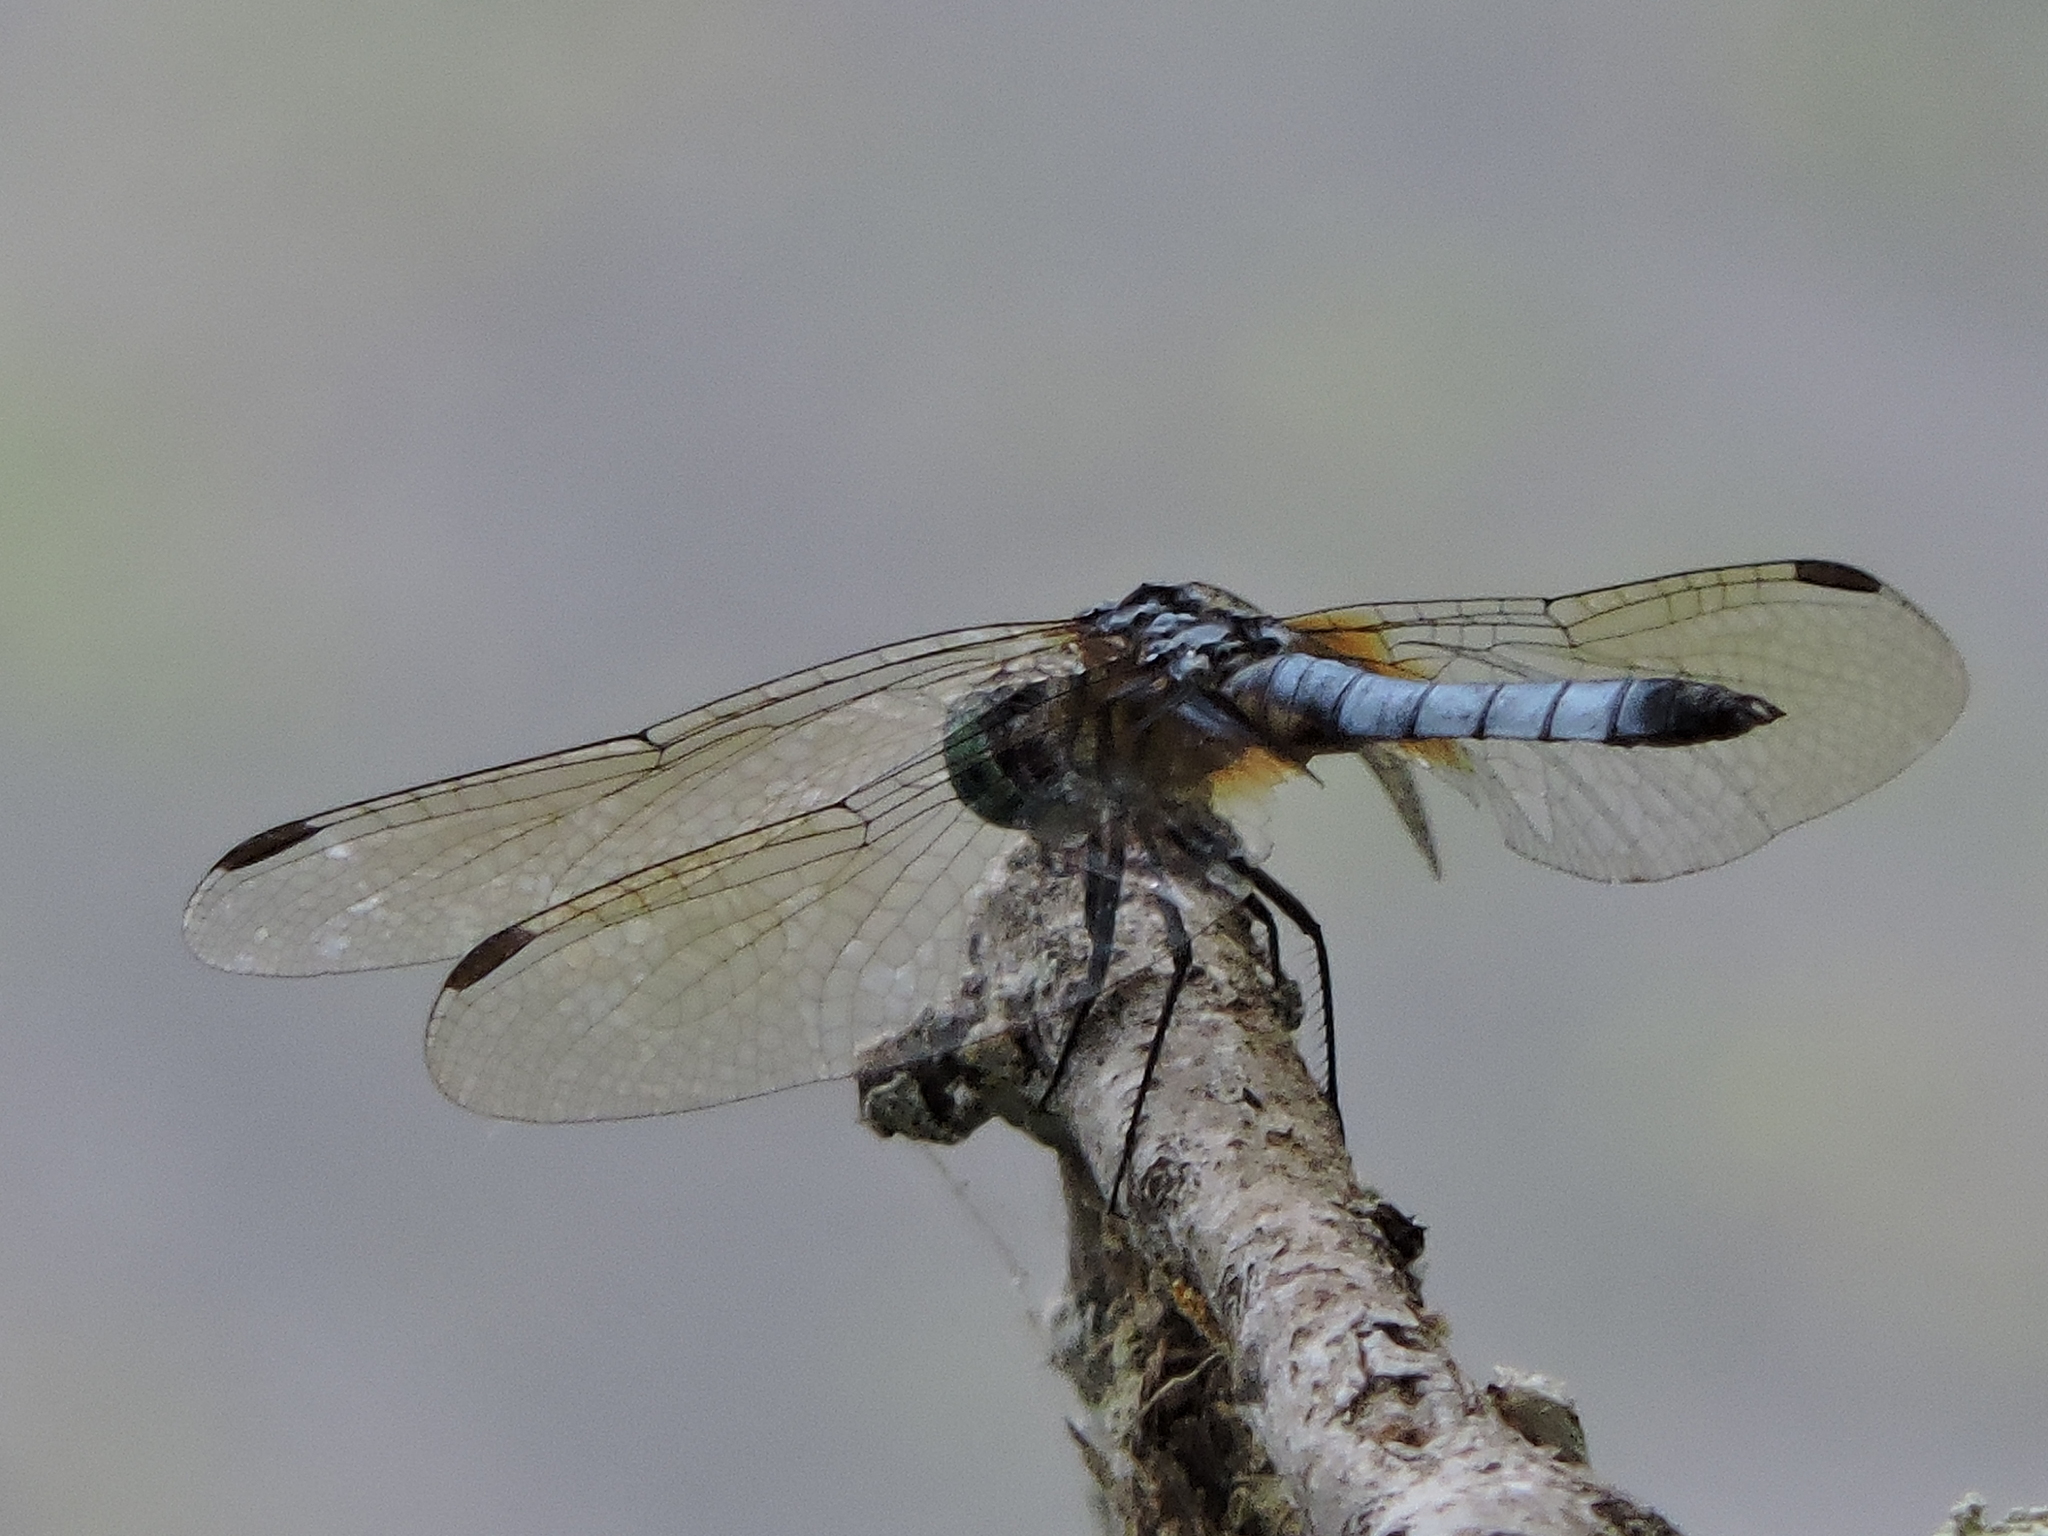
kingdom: Animalia
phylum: Arthropoda
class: Insecta
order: Odonata
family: Libellulidae
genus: Pachydiplax
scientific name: Pachydiplax longipennis
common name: Blue dasher
